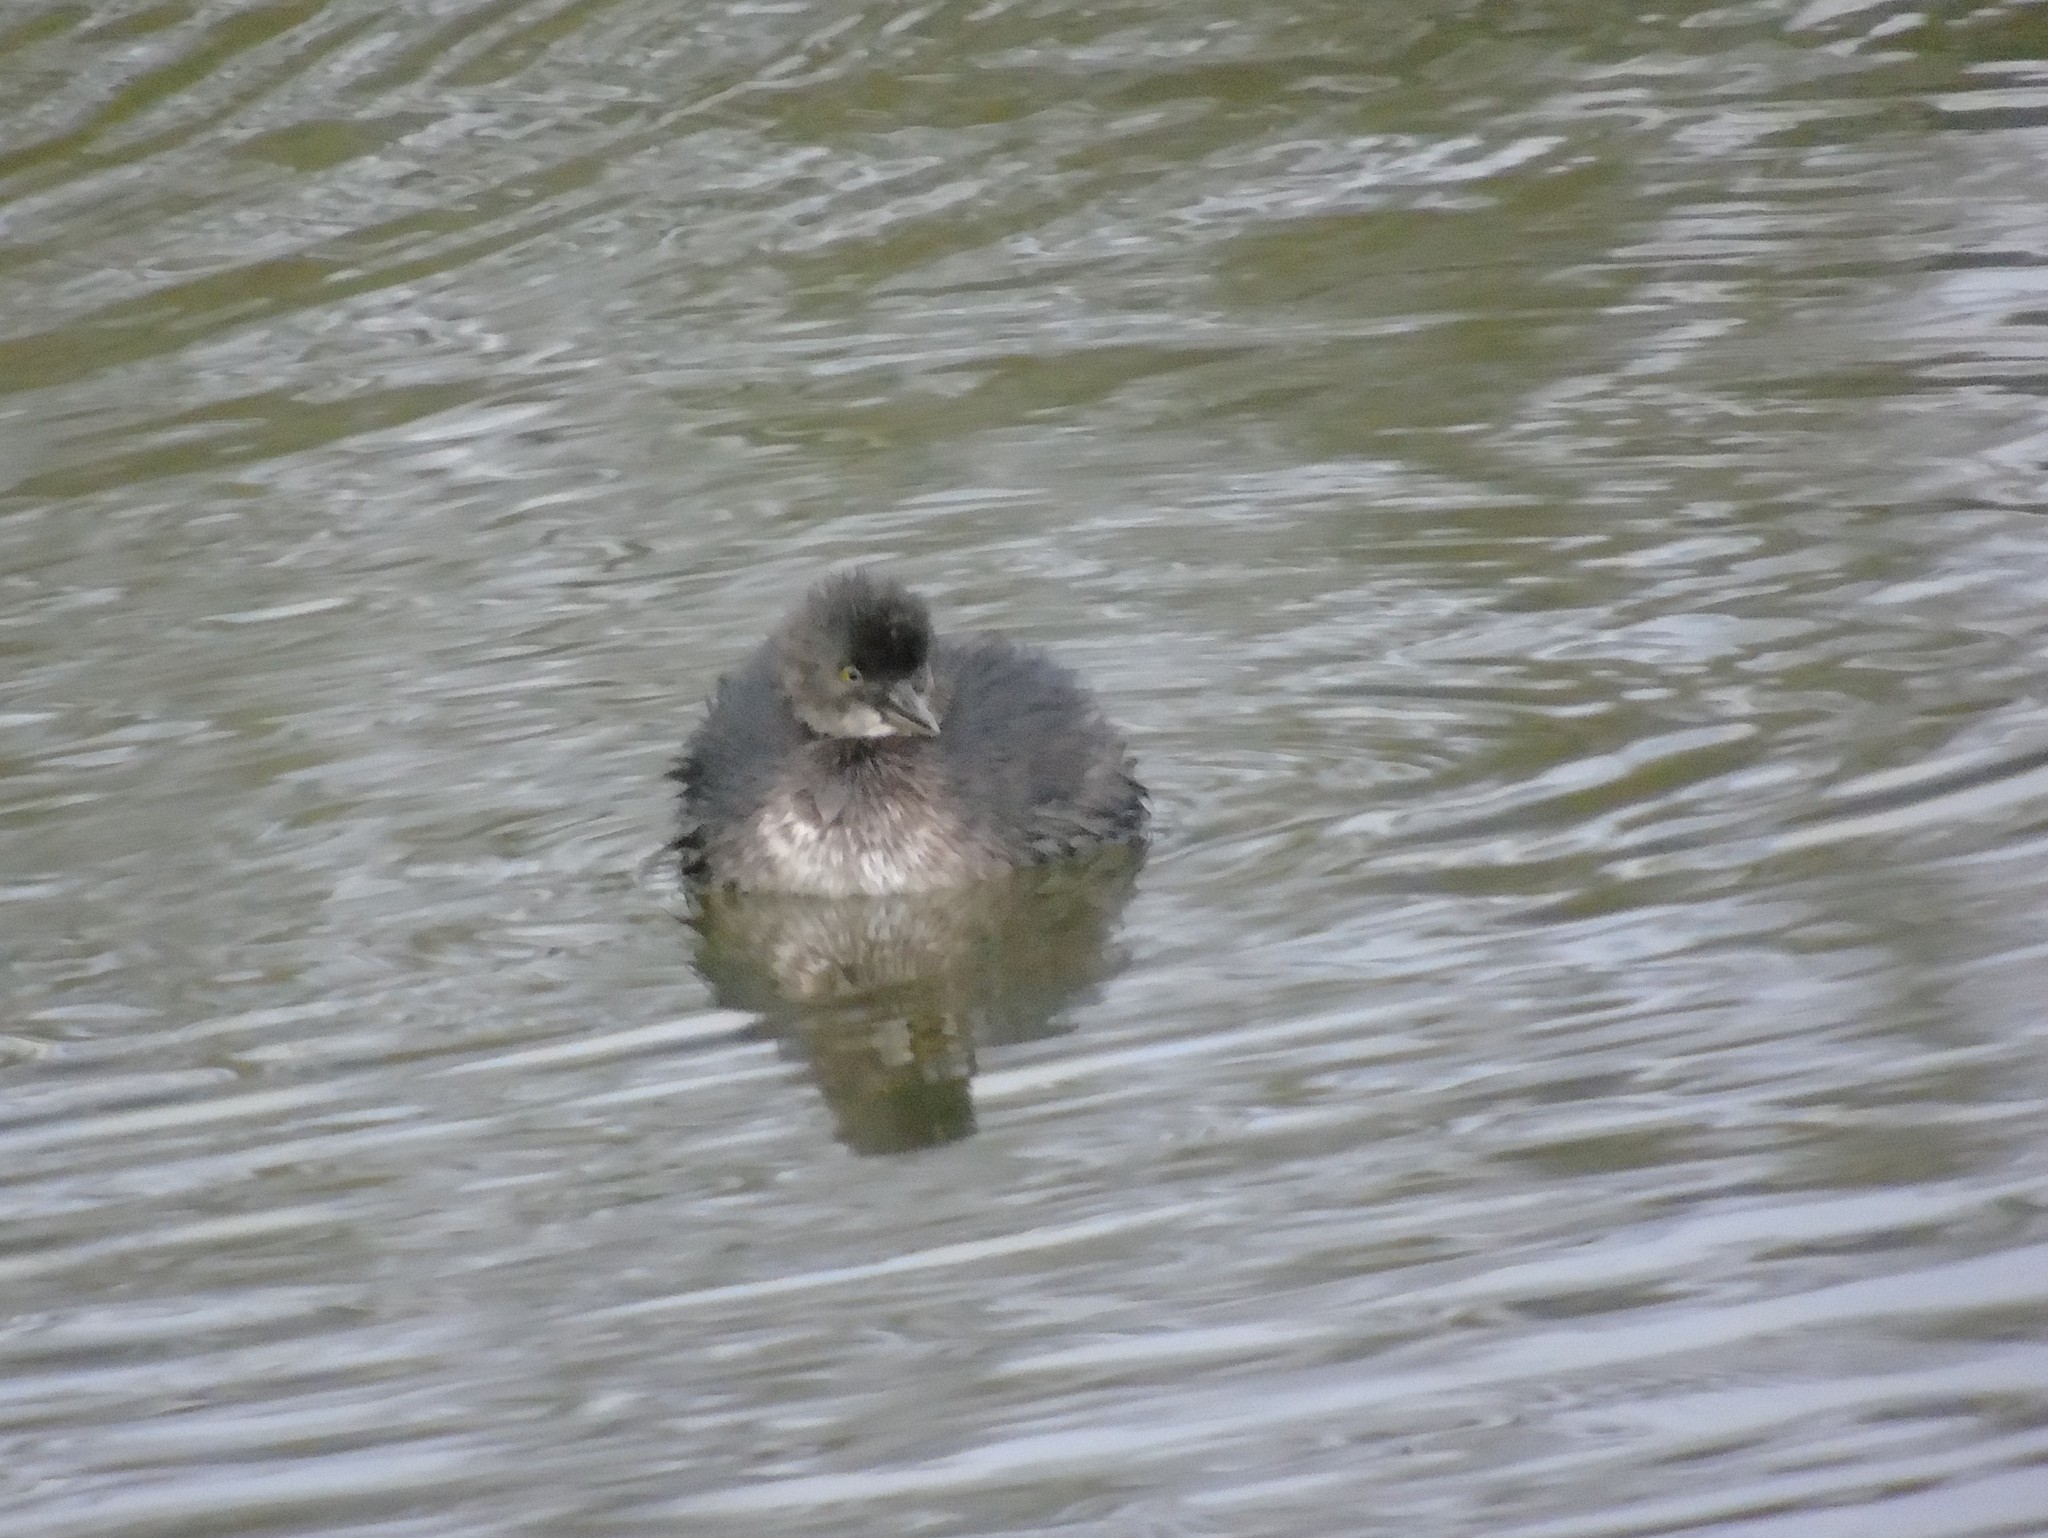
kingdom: Animalia
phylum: Chordata
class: Aves
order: Podicipediformes
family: Podicipedidae
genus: Tachybaptus
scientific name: Tachybaptus dominicus
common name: Least grebe
